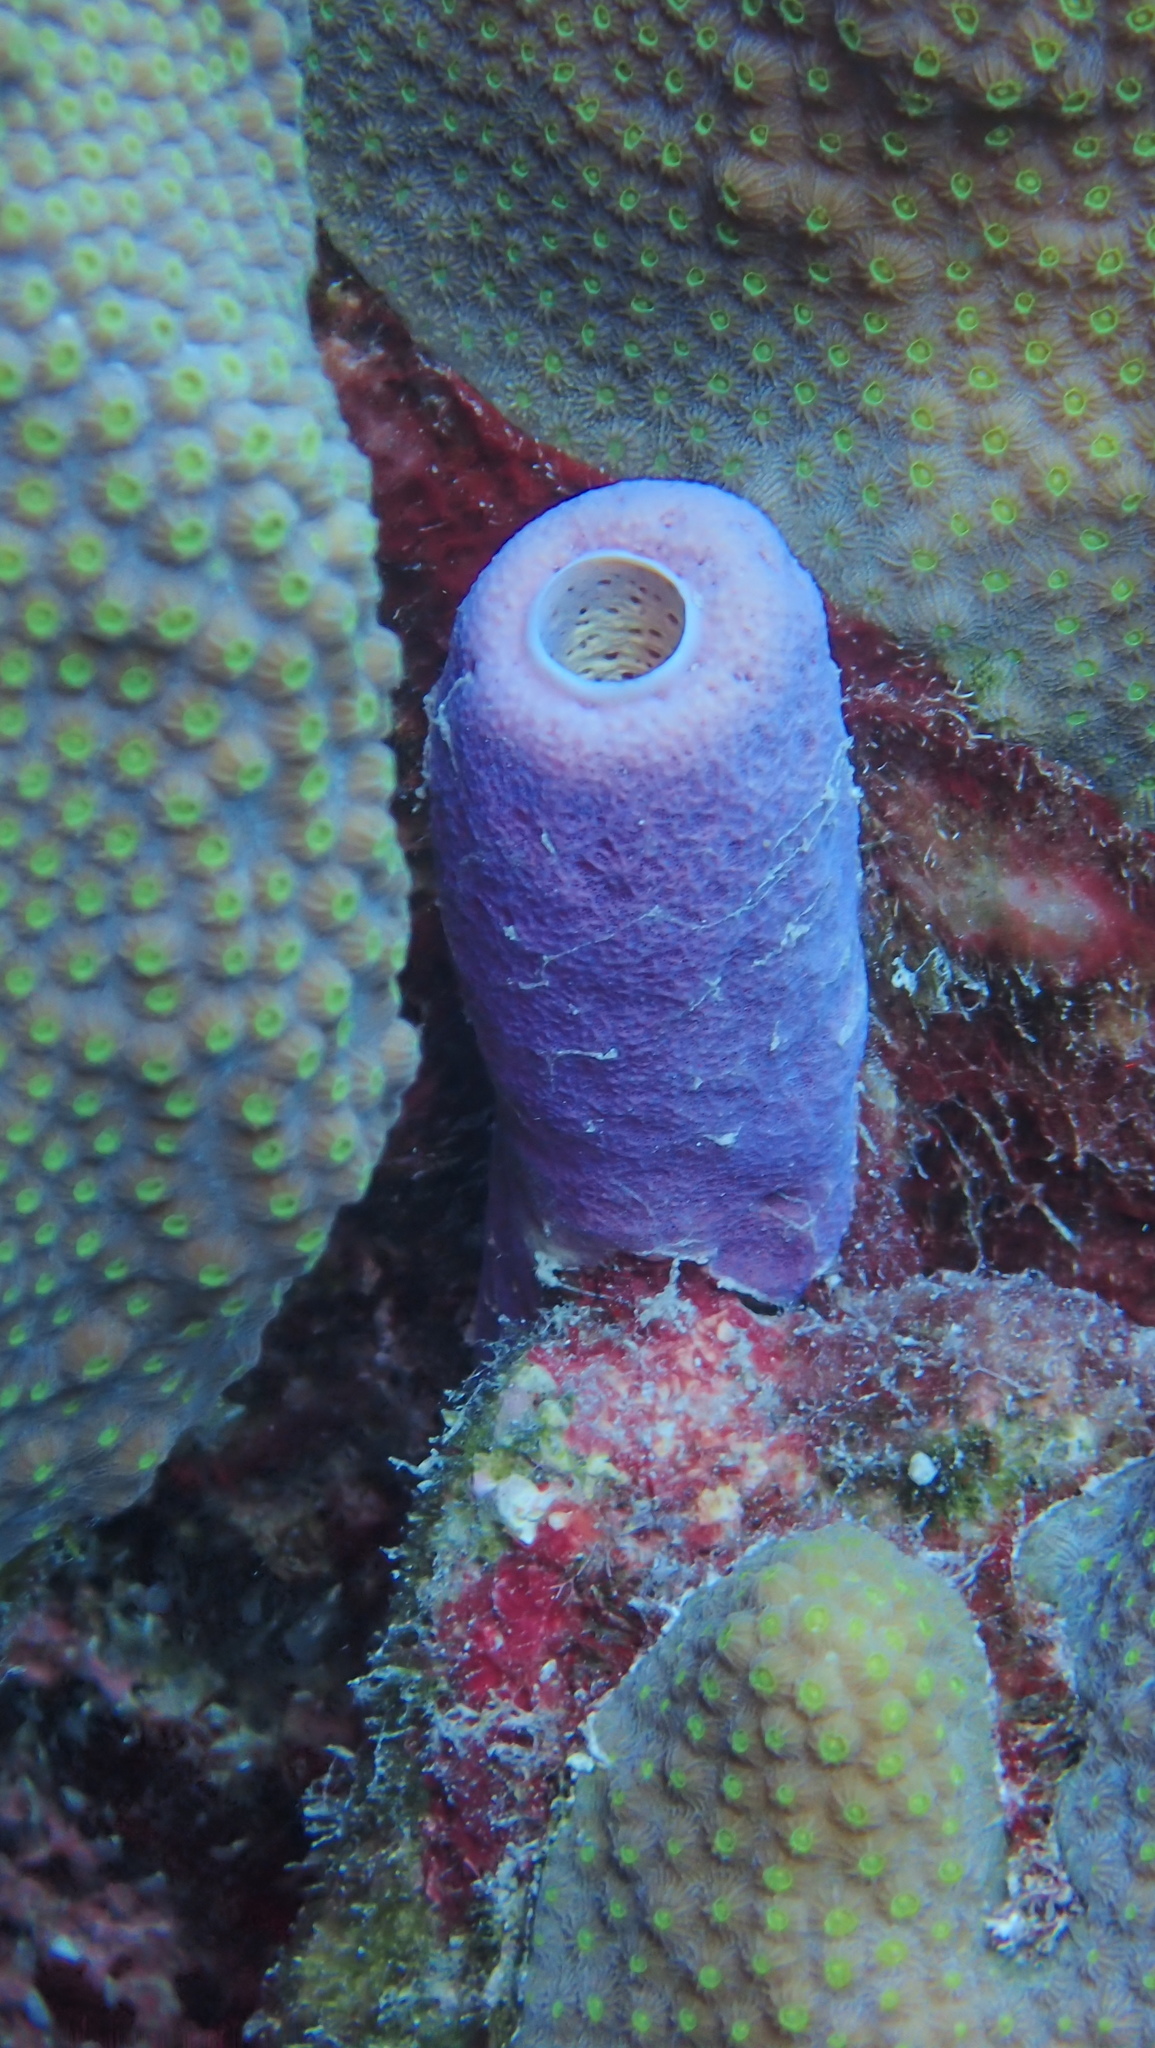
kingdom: Animalia
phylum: Porifera
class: Demospongiae
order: Verongiida
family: Aplysinidae
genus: Aplysina
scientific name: Aplysina archeri
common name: Stove-pipe sponge
